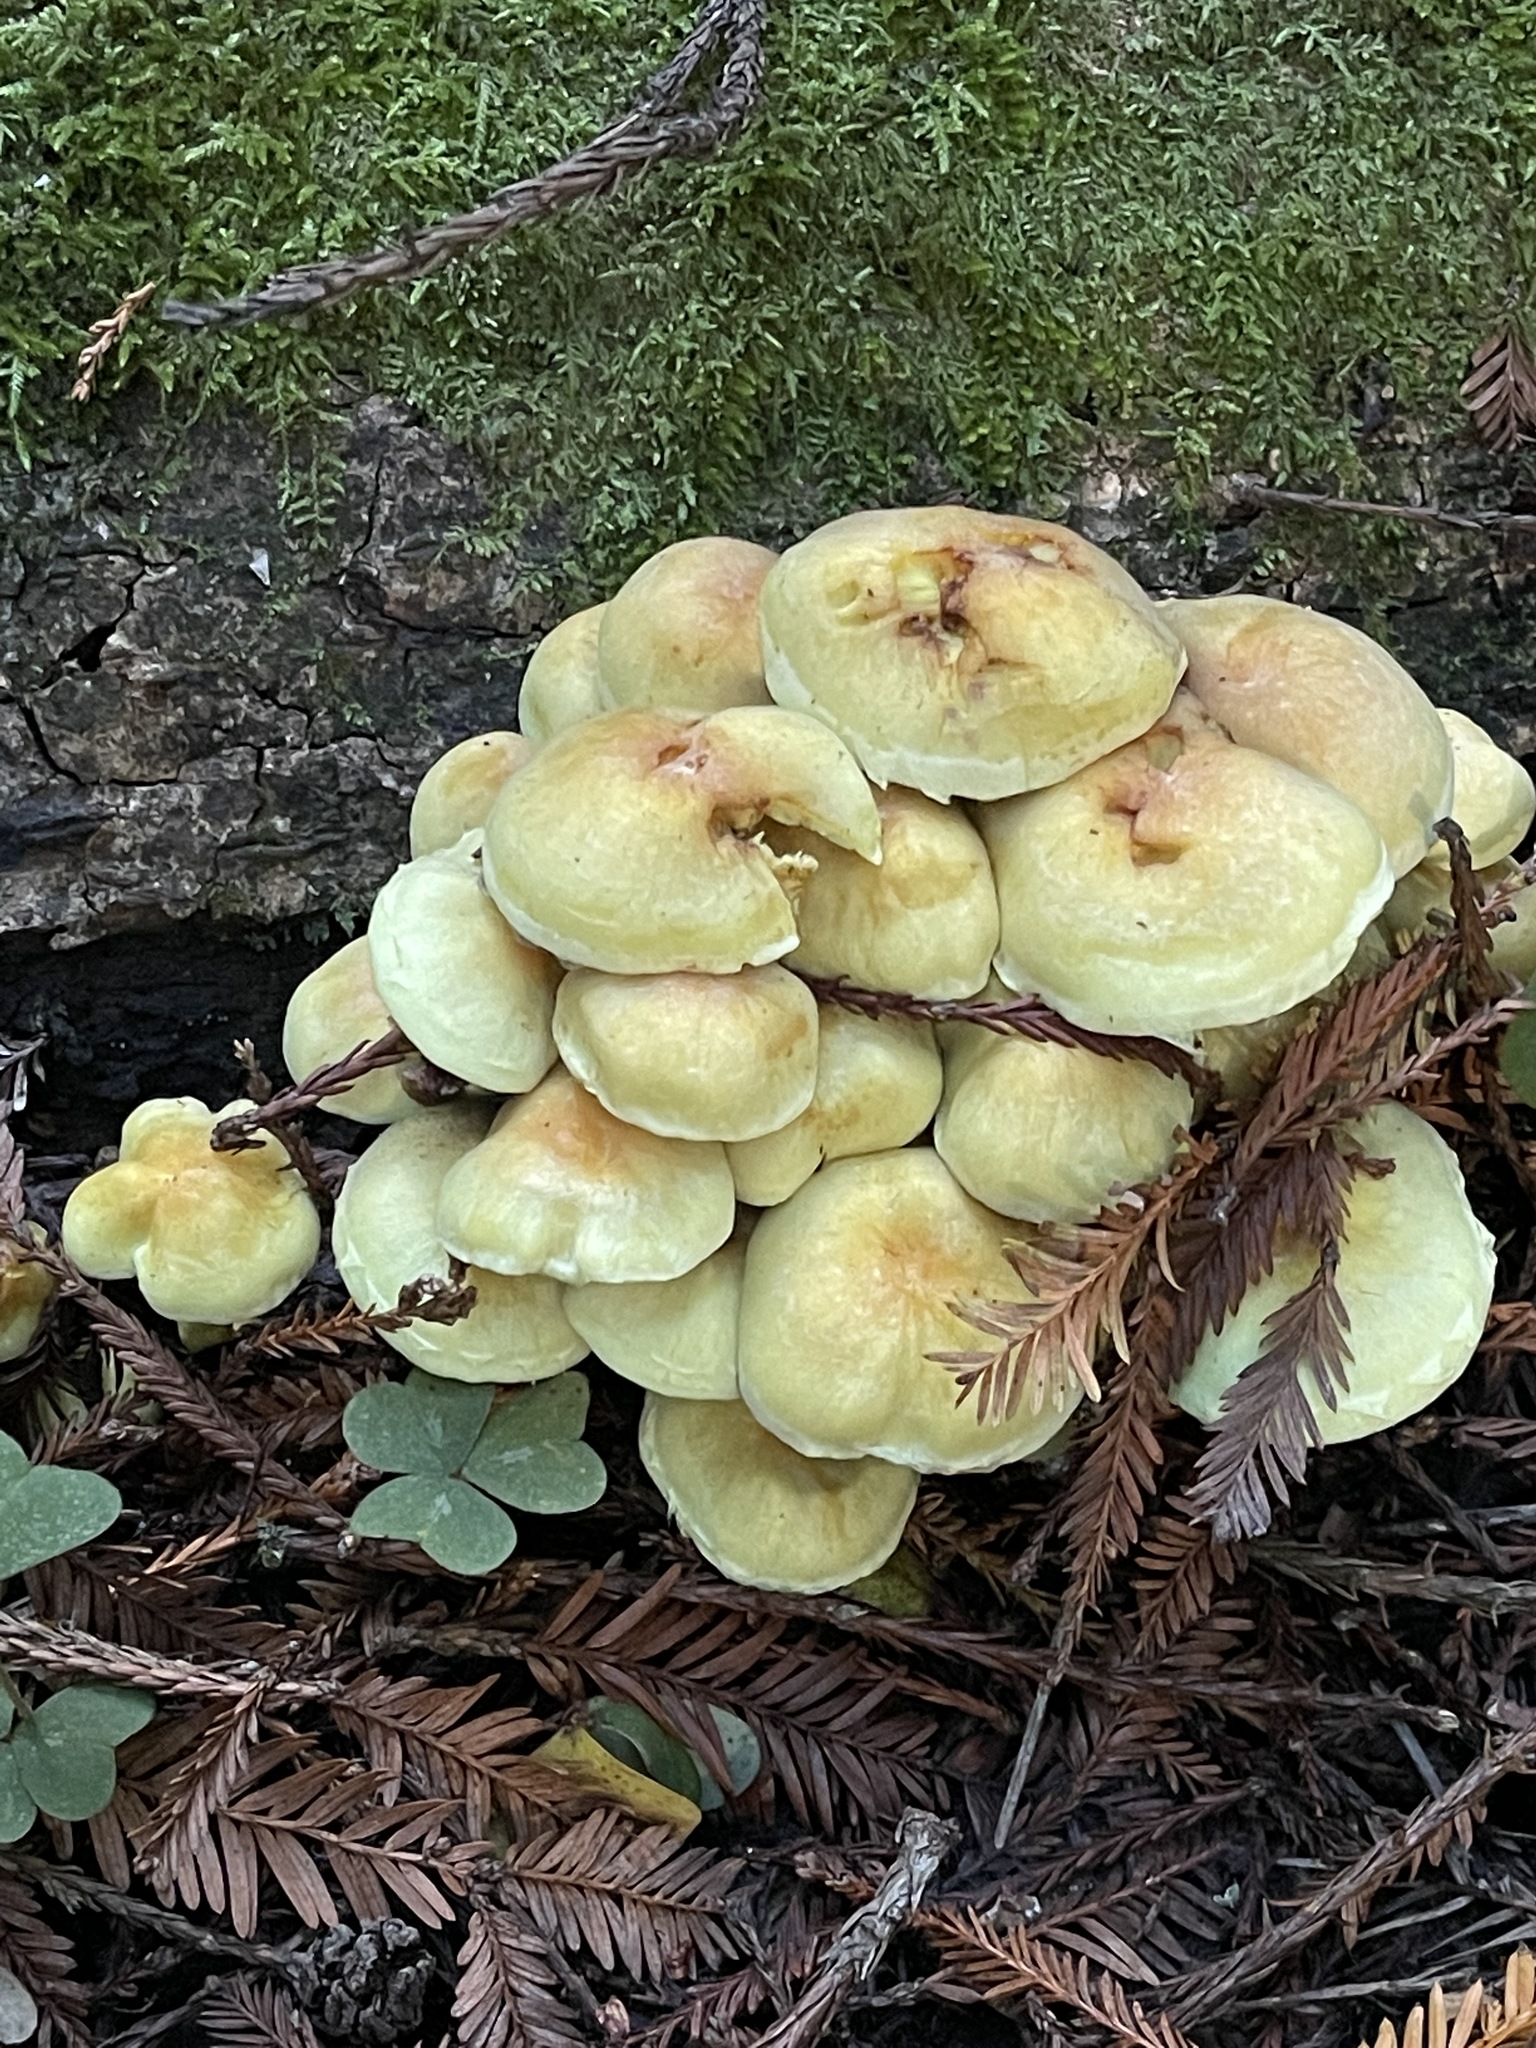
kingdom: Fungi
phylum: Basidiomycota
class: Agaricomycetes
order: Agaricales
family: Strophariaceae
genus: Hypholoma
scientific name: Hypholoma fasciculare
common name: Sulphur tuft
